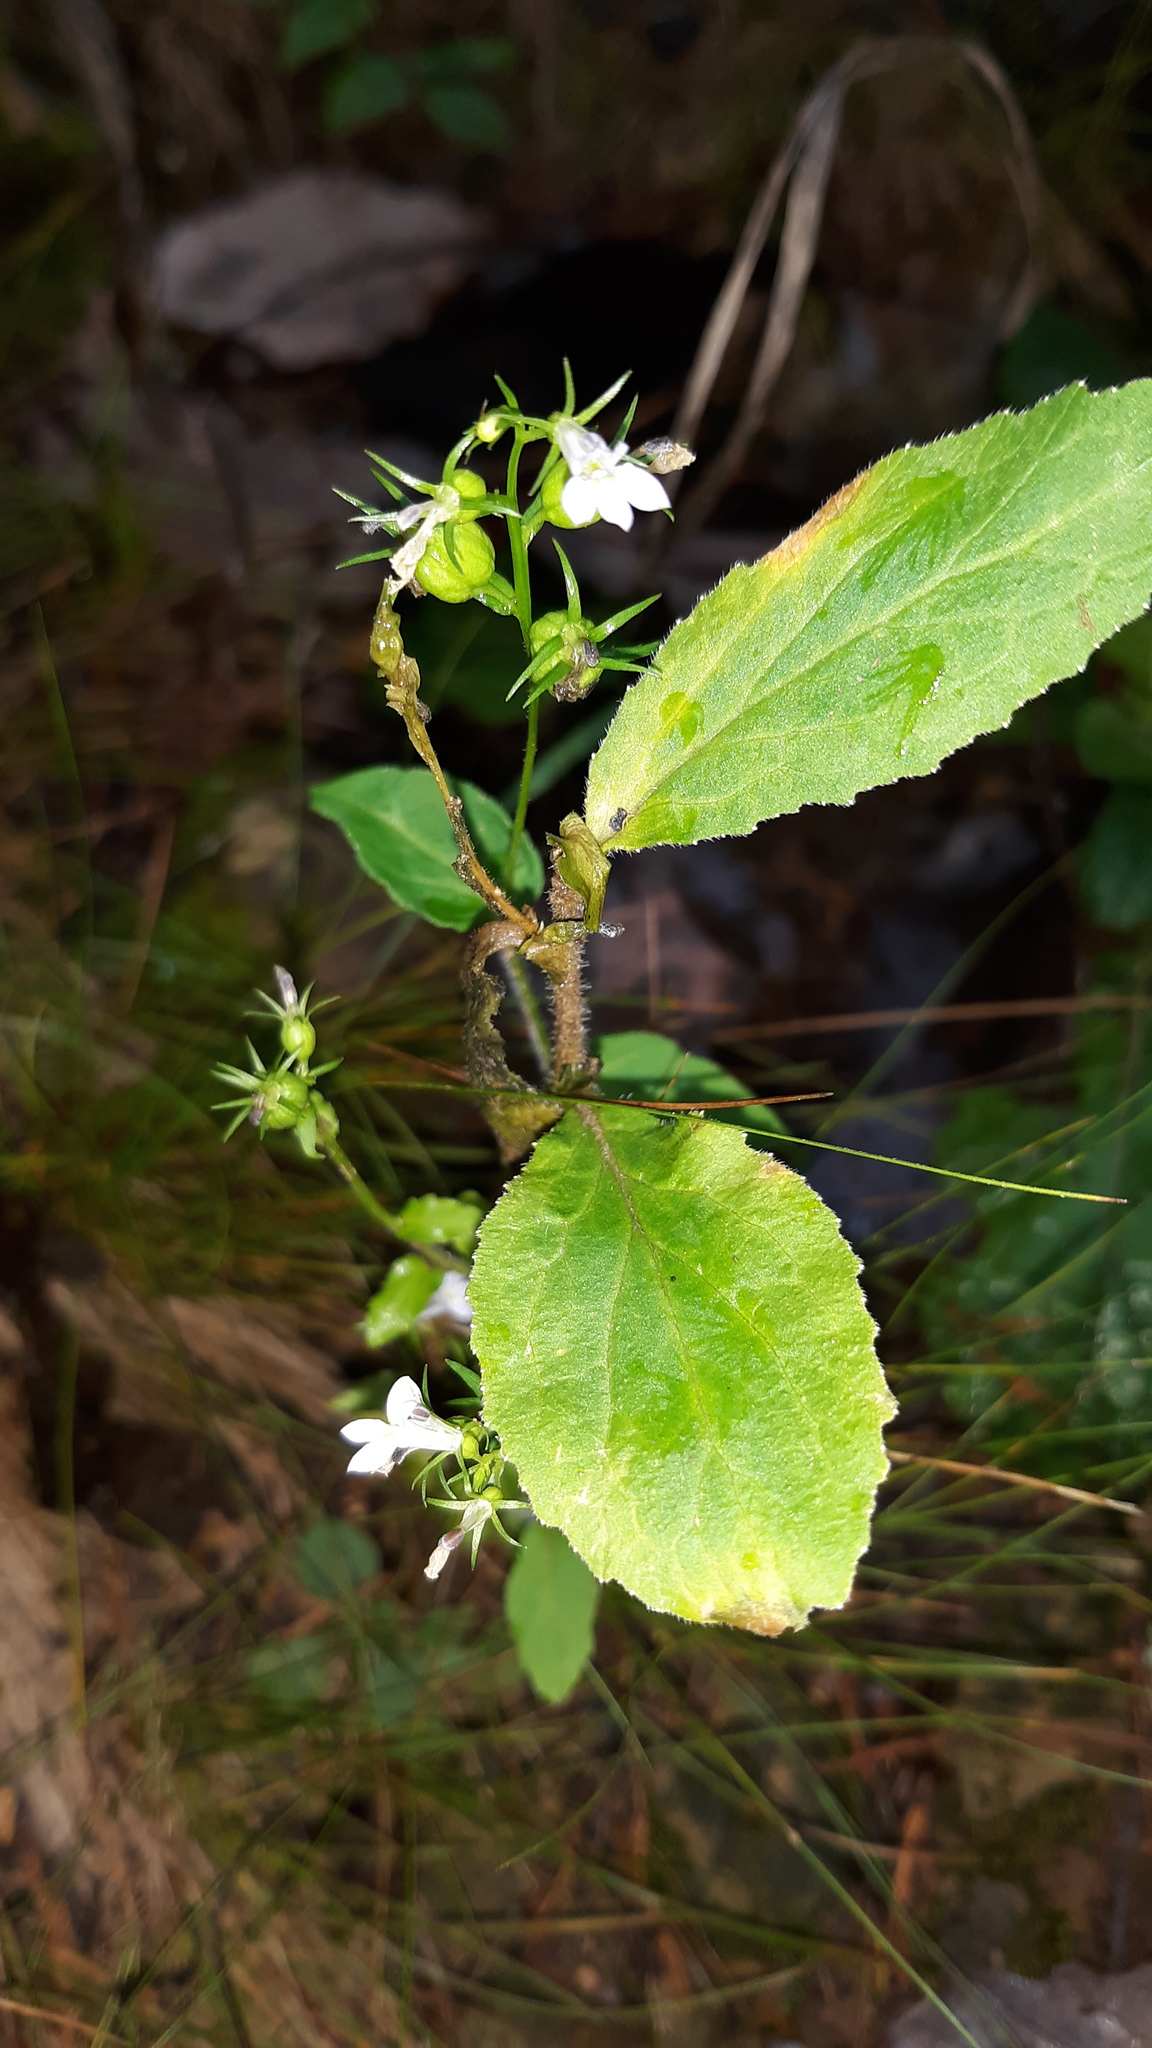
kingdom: Plantae
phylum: Tracheophyta
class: Magnoliopsida
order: Asterales
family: Campanulaceae
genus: Lobelia
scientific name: Lobelia inflata
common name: Indian tobacco
